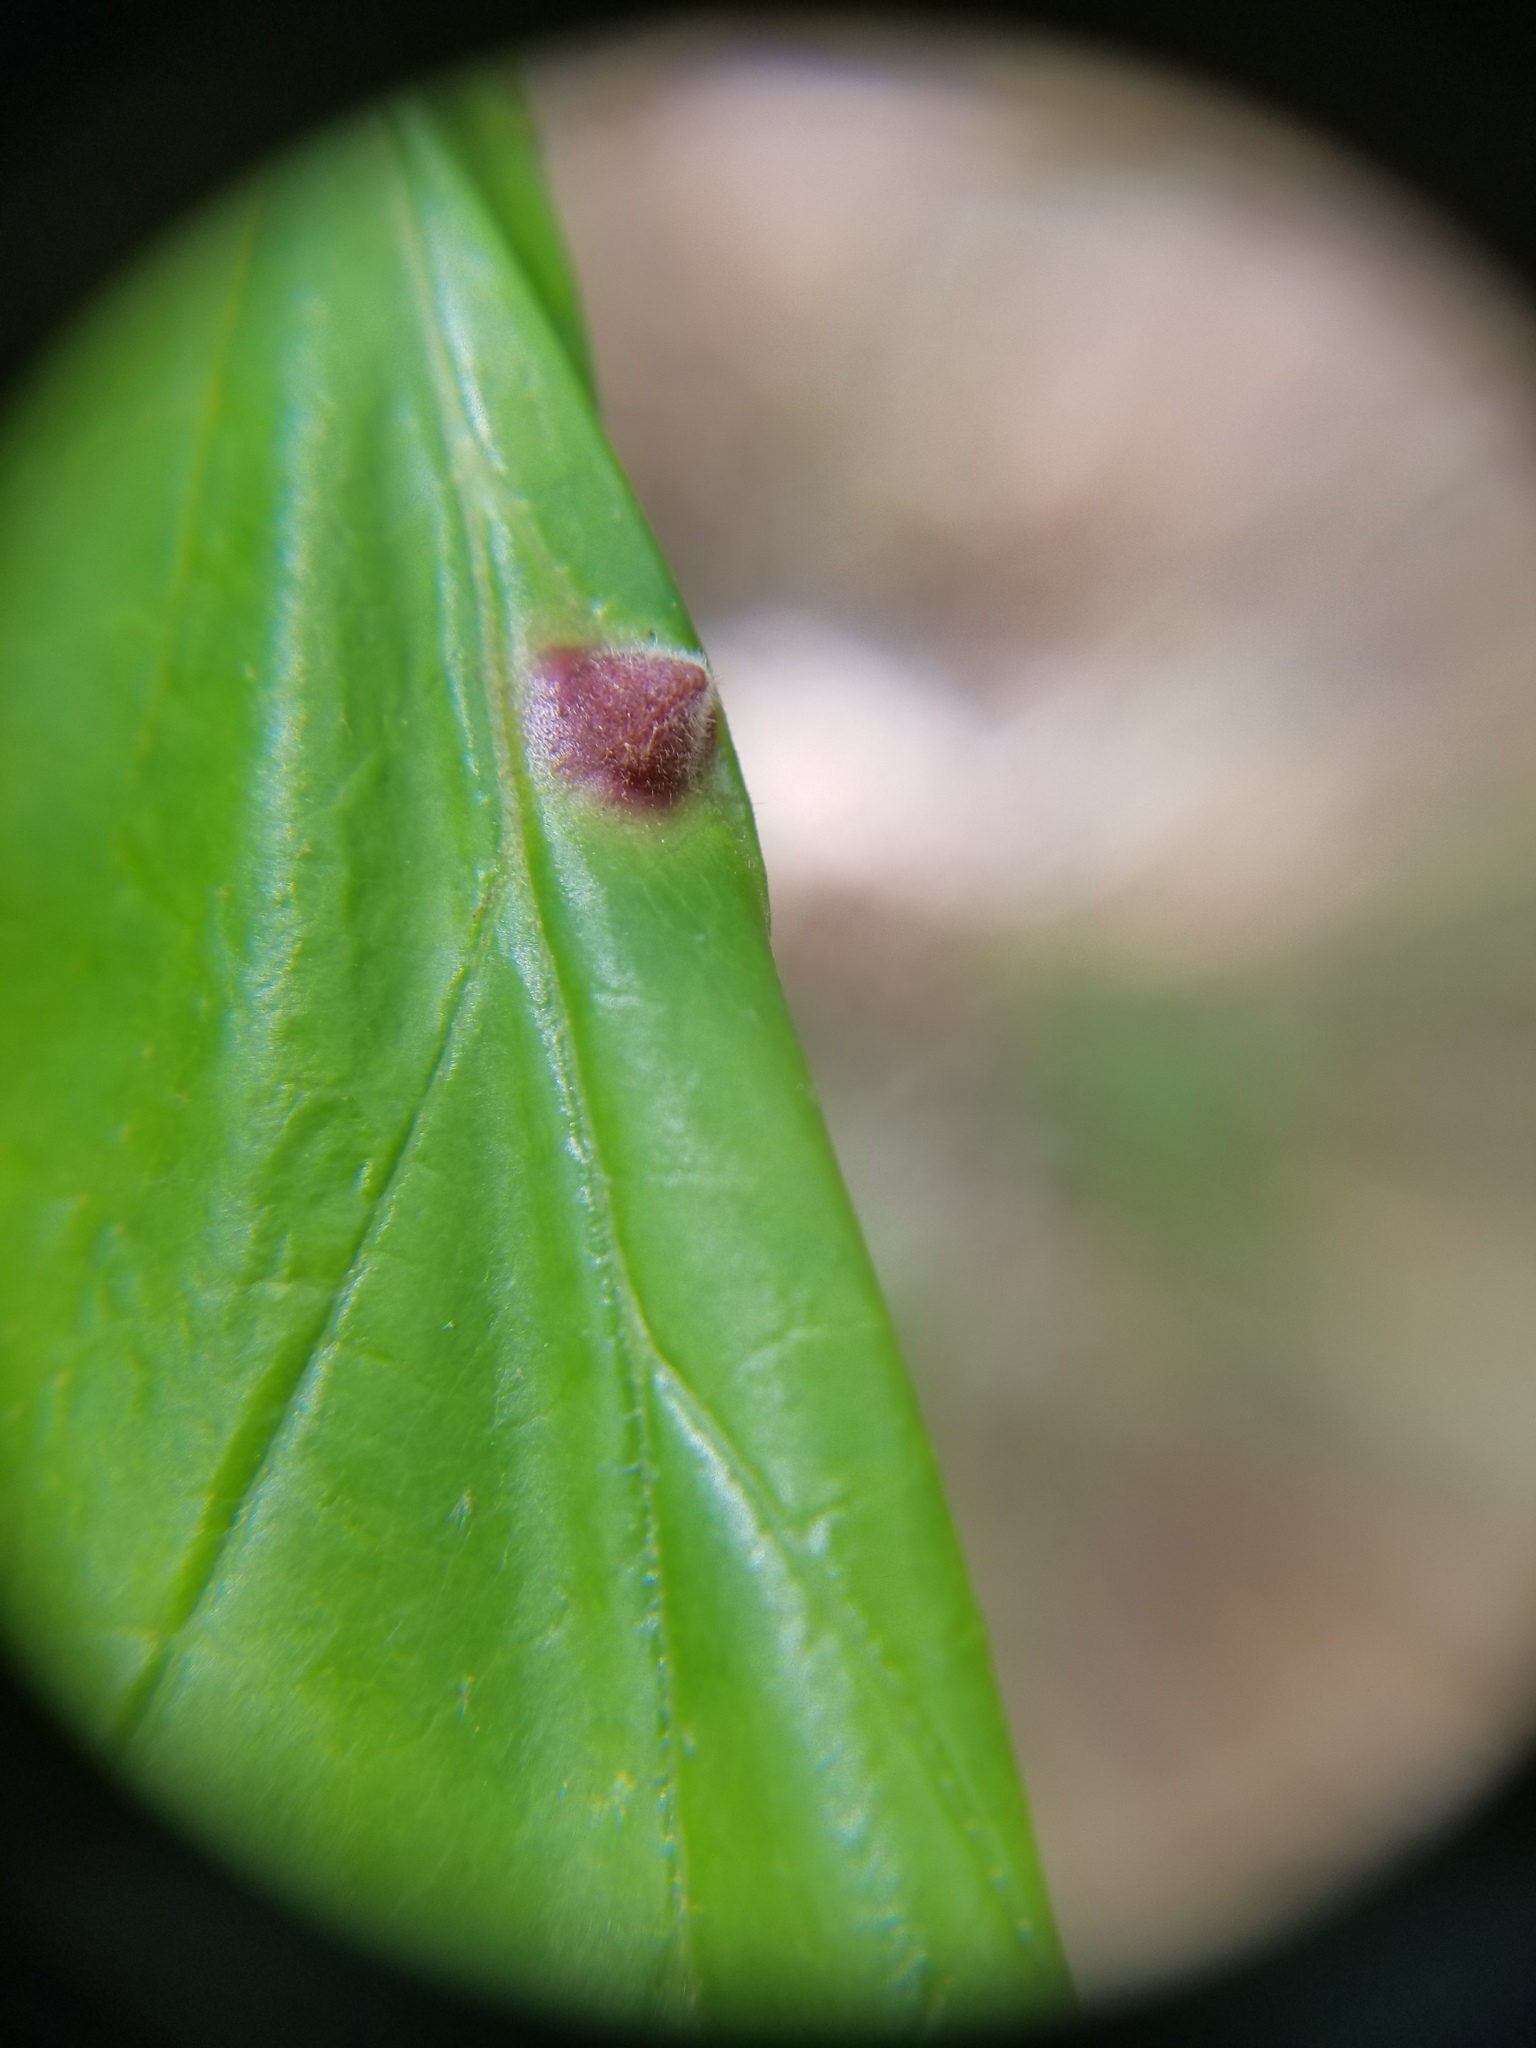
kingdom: Animalia
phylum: Arthropoda
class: Insecta
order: Hemiptera
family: Aphididae
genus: Hormaphis
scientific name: Hormaphis hamamelidis
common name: Witch-hazel cone gall aphid
